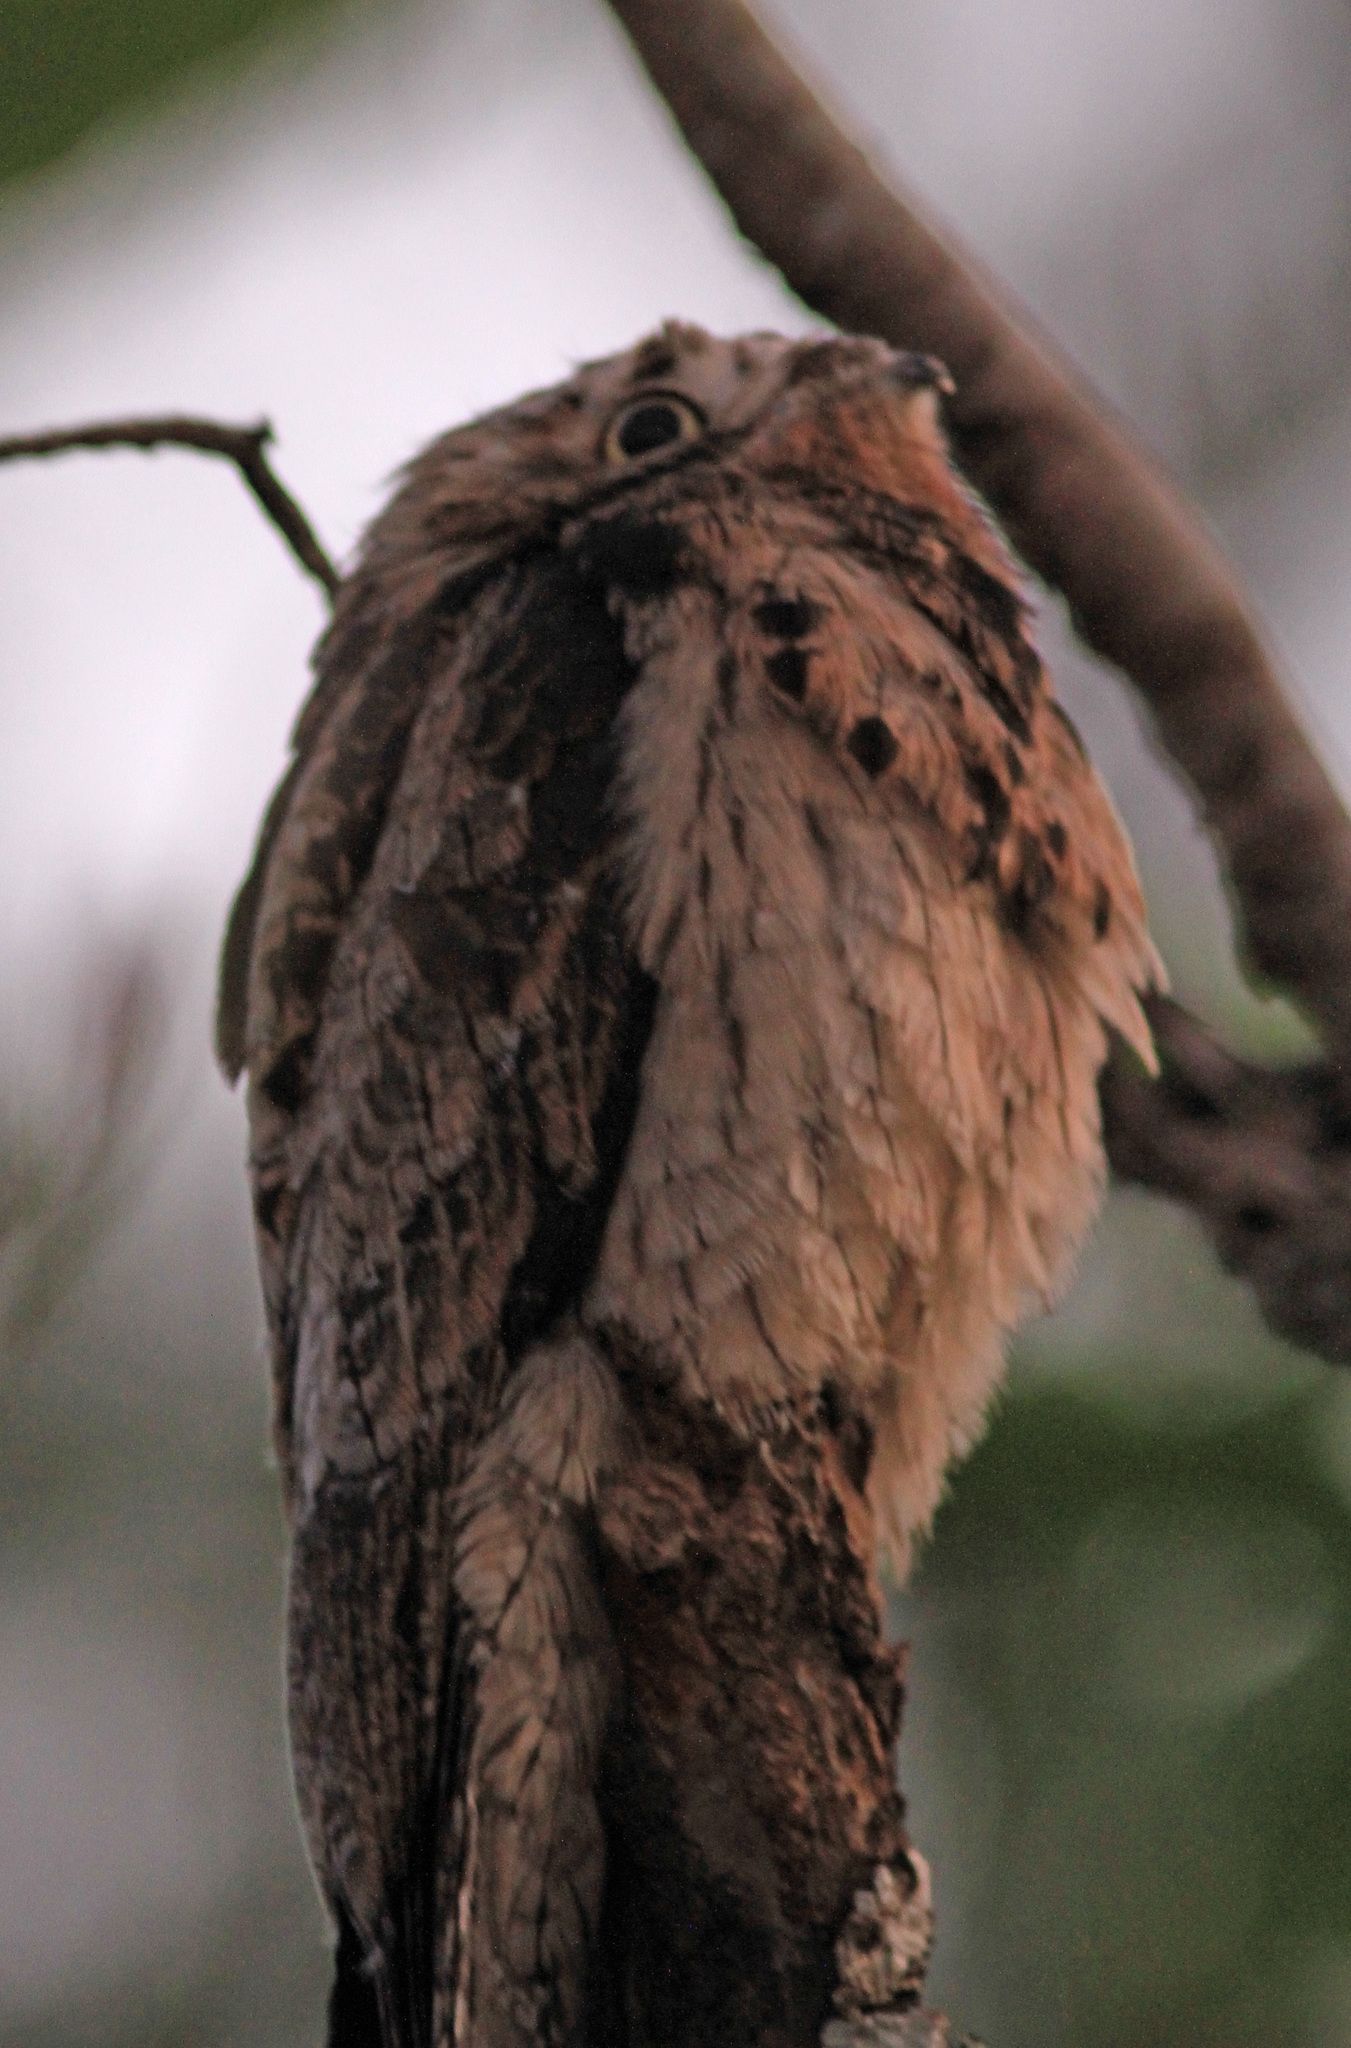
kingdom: Animalia
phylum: Chordata
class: Aves
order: Nyctibiiformes
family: Nyctibiidae
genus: Nyctibius
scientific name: Nyctibius griseus
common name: Common potoo
